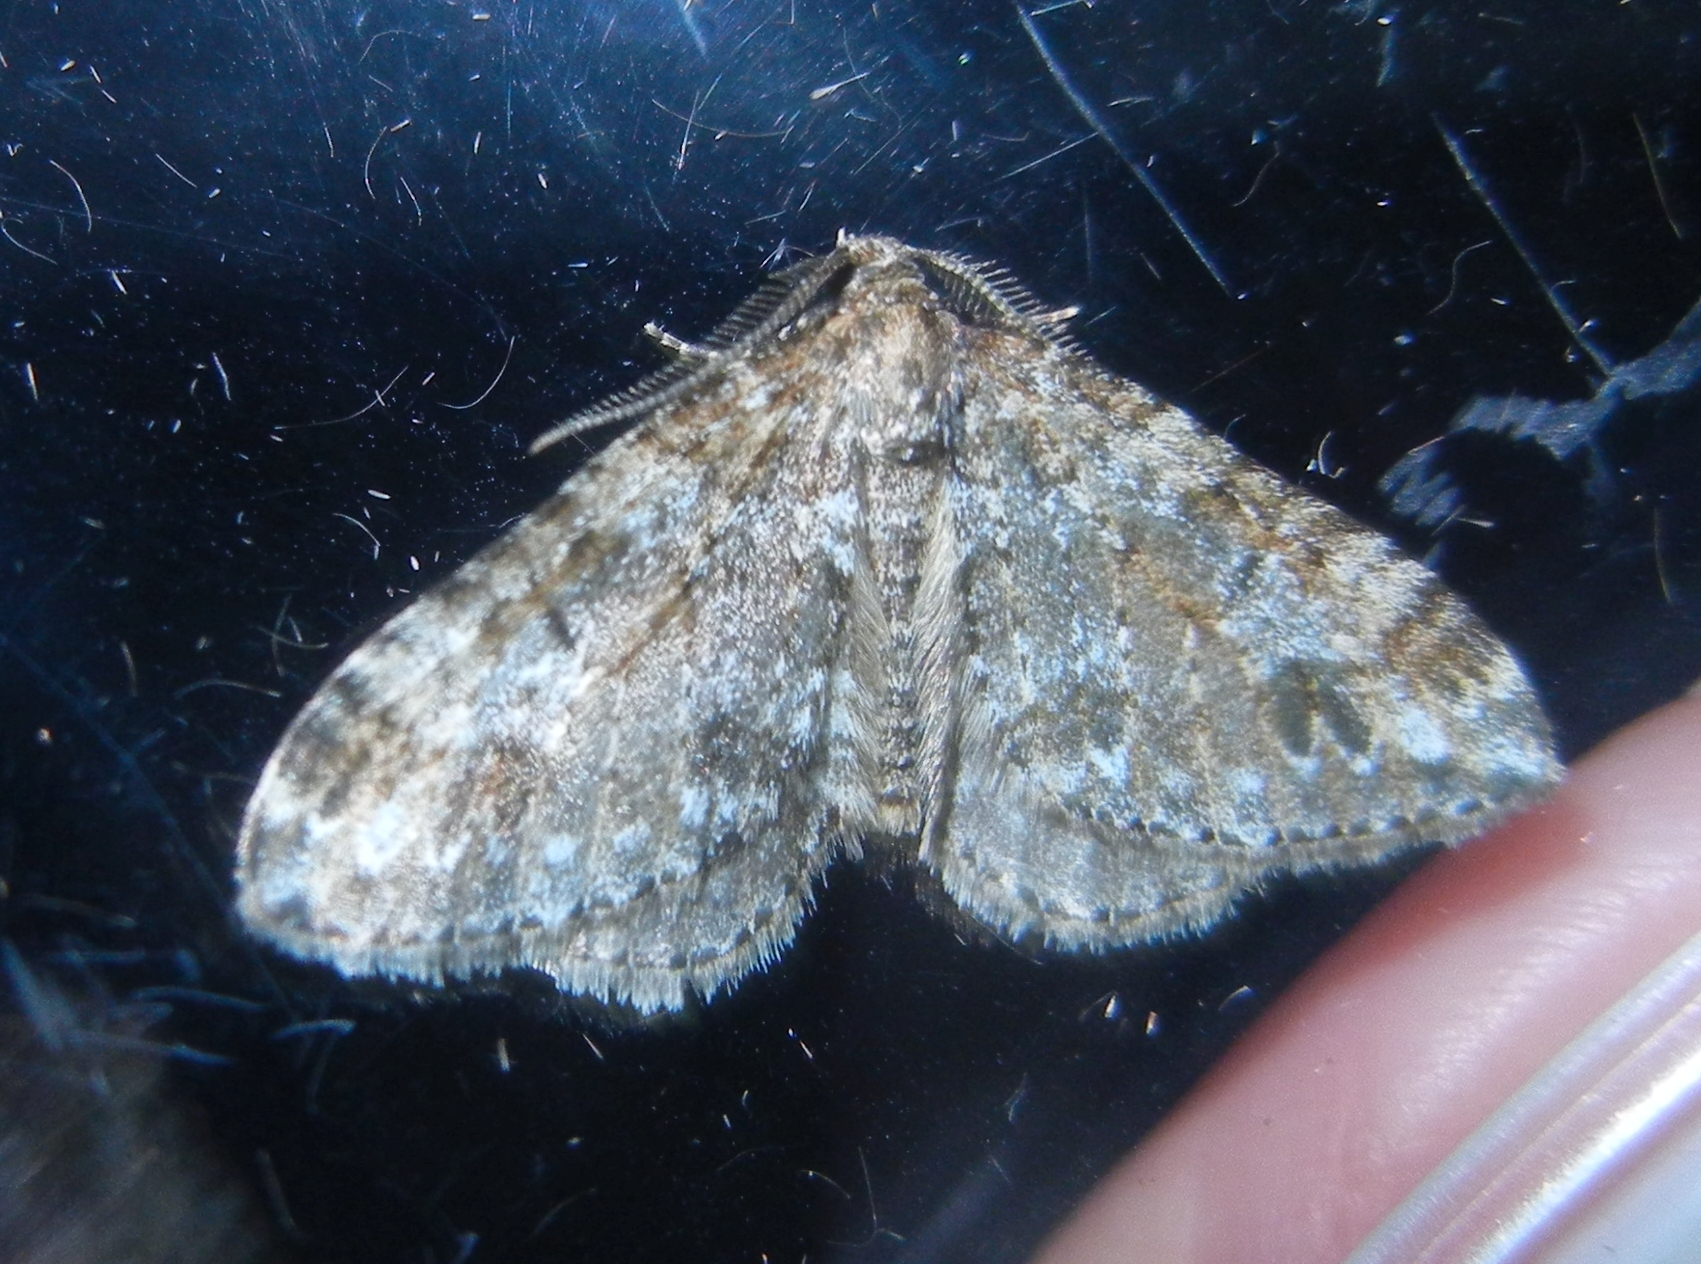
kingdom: Animalia
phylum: Arthropoda
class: Insecta
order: Lepidoptera
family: Geometridae
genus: Perizoma
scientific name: Perizoma didymata
